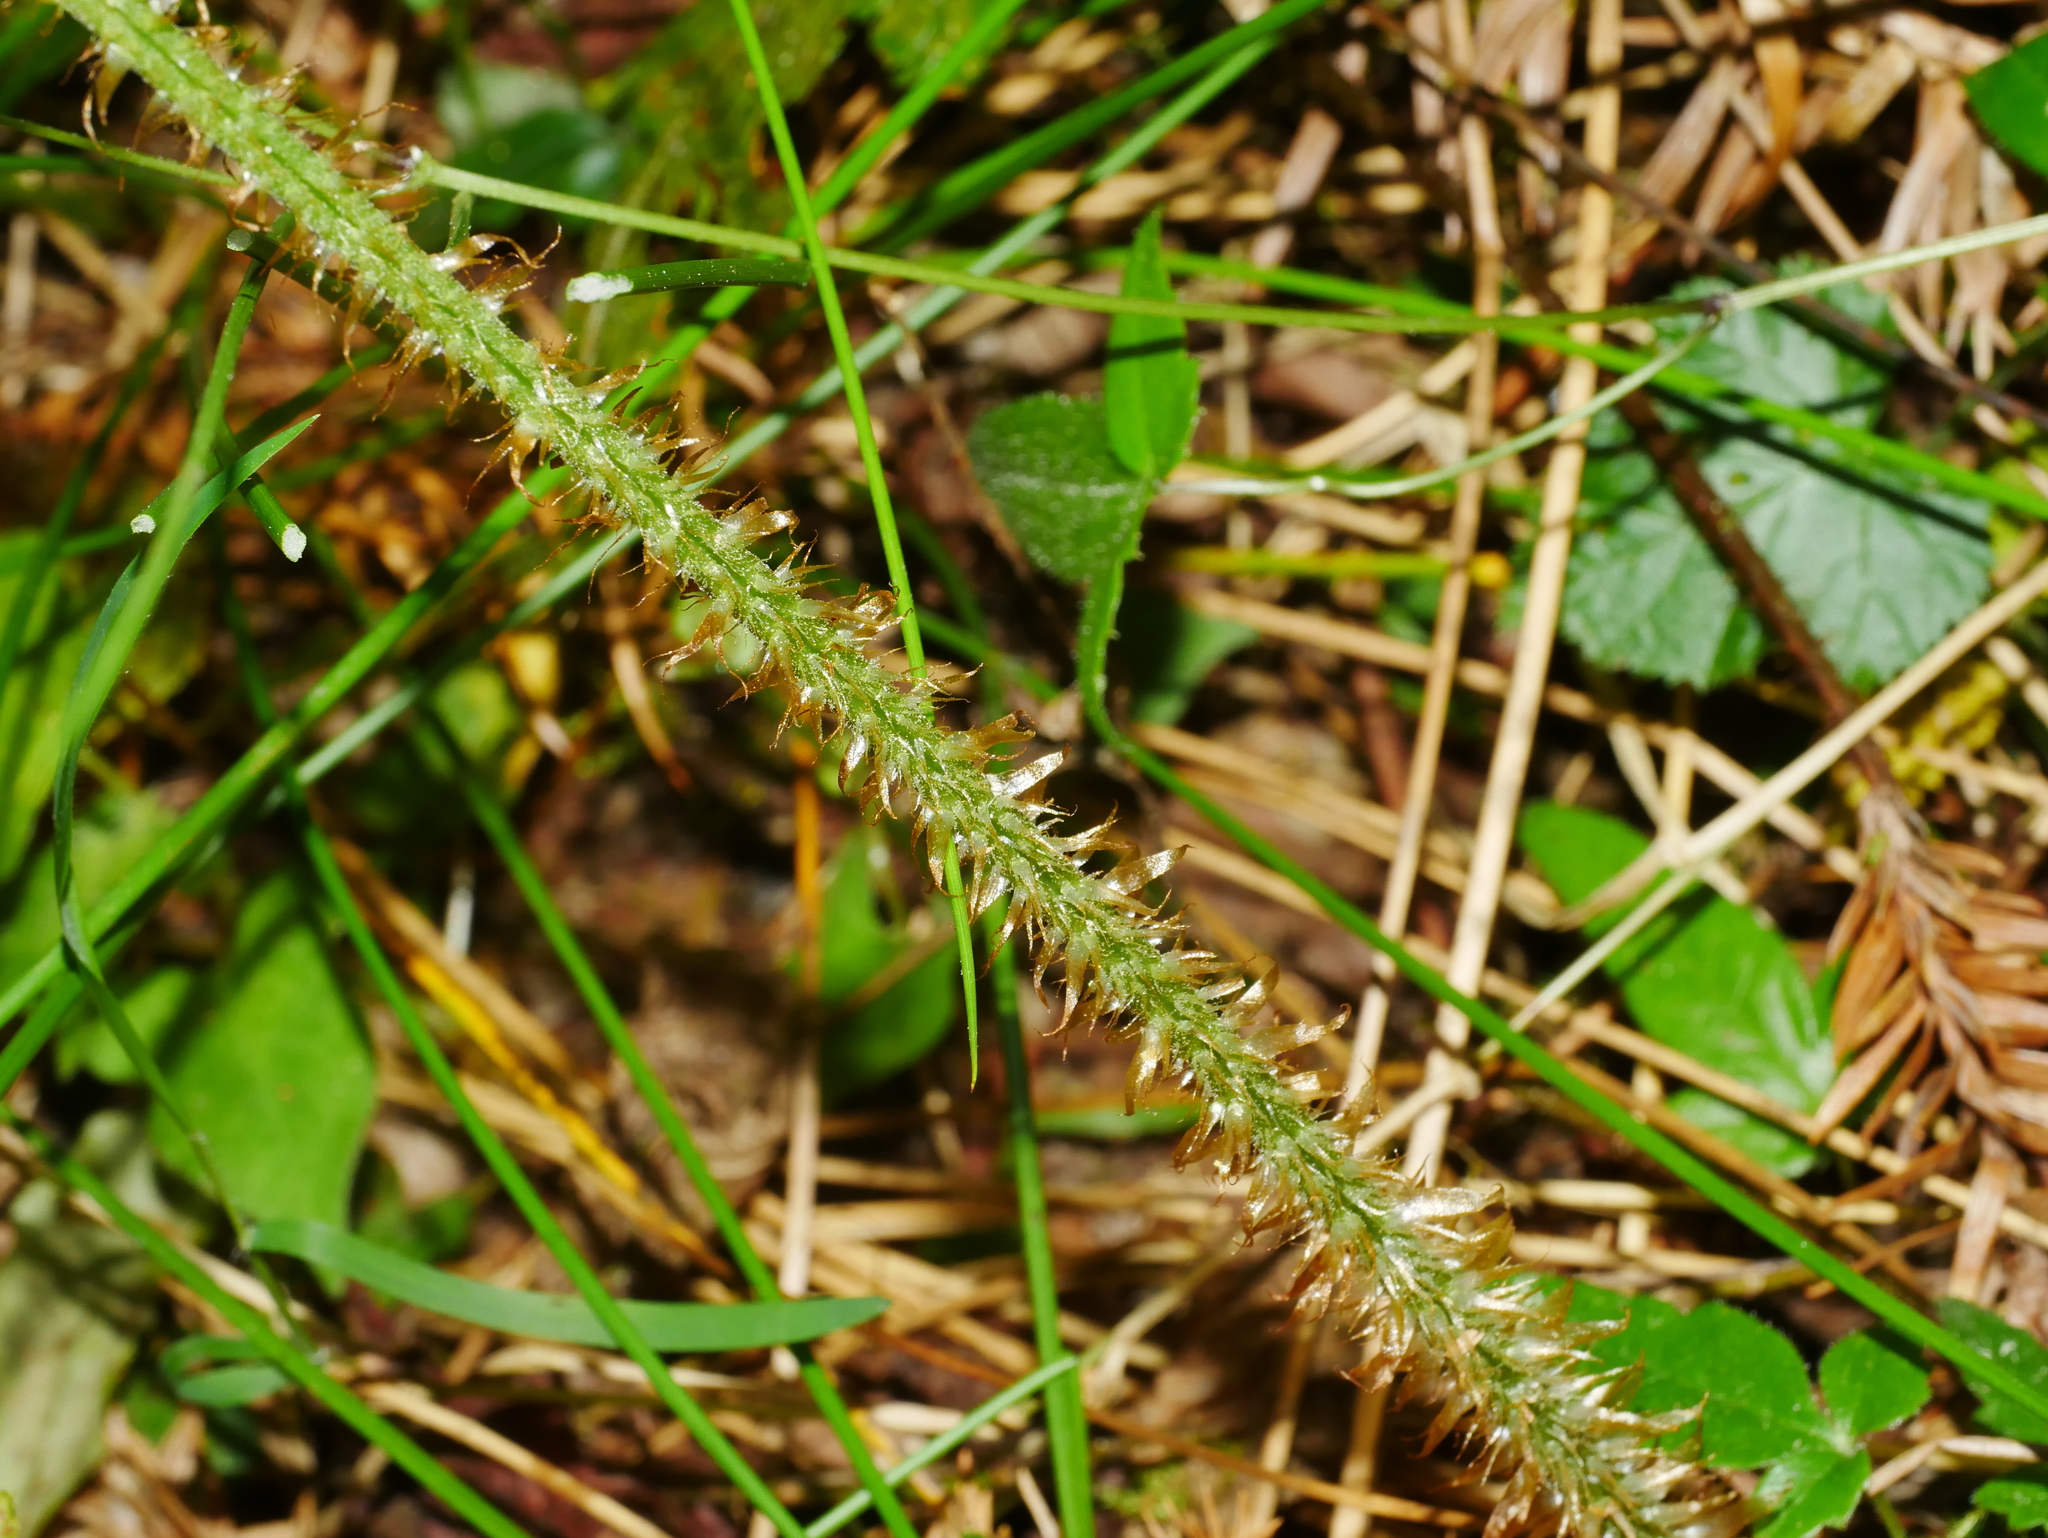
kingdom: Plantae
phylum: Tracheophyta
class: Polypodiopsida
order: Polypodiales
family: Dryopteridaceae
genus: Dryopteris
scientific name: Dryopteris hendersonii
